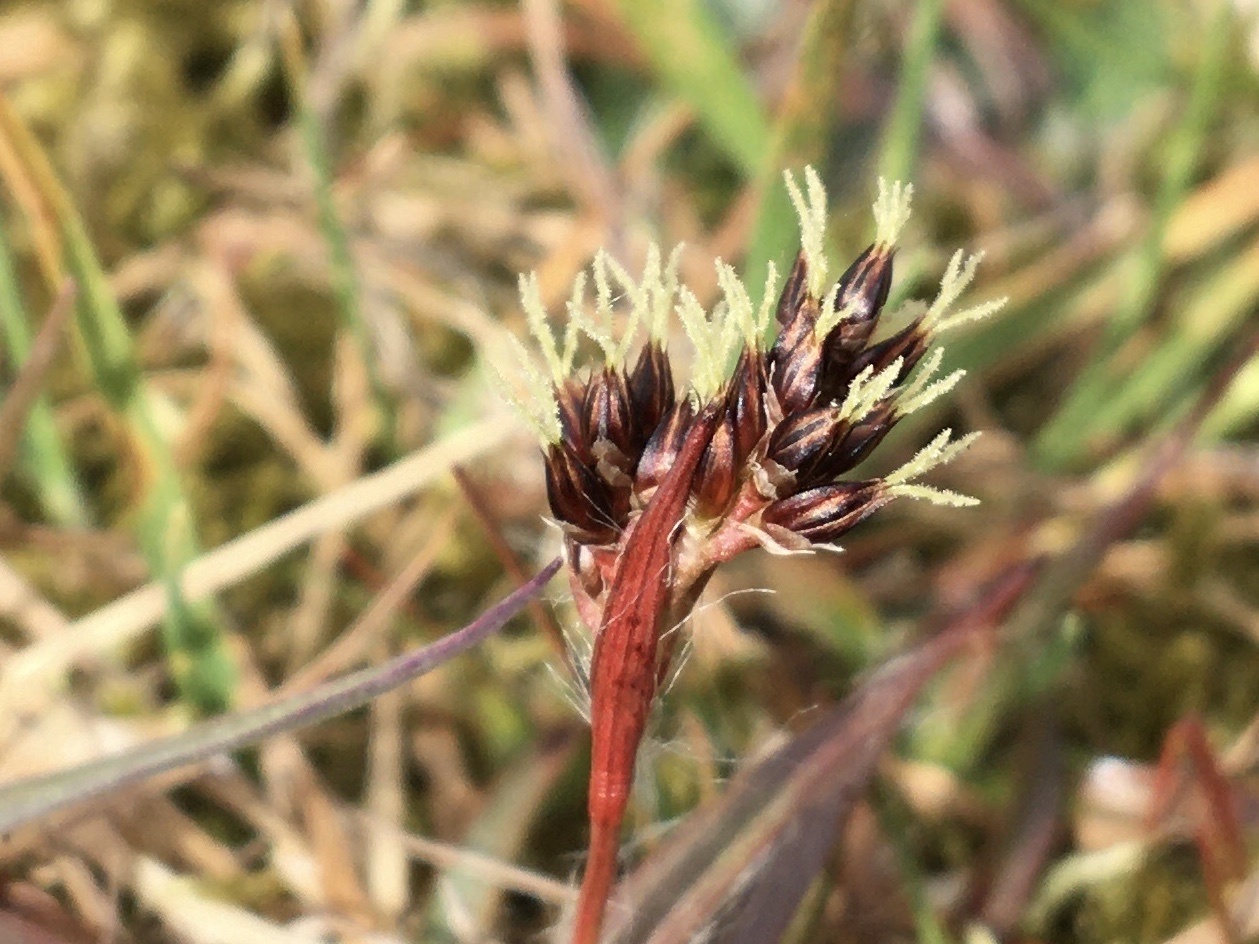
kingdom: Plantae
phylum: Tracheophyta
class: Liliopsida
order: Poales
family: Juncaceae
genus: Luzula
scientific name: Luzula campestris
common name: Field wood-rush
